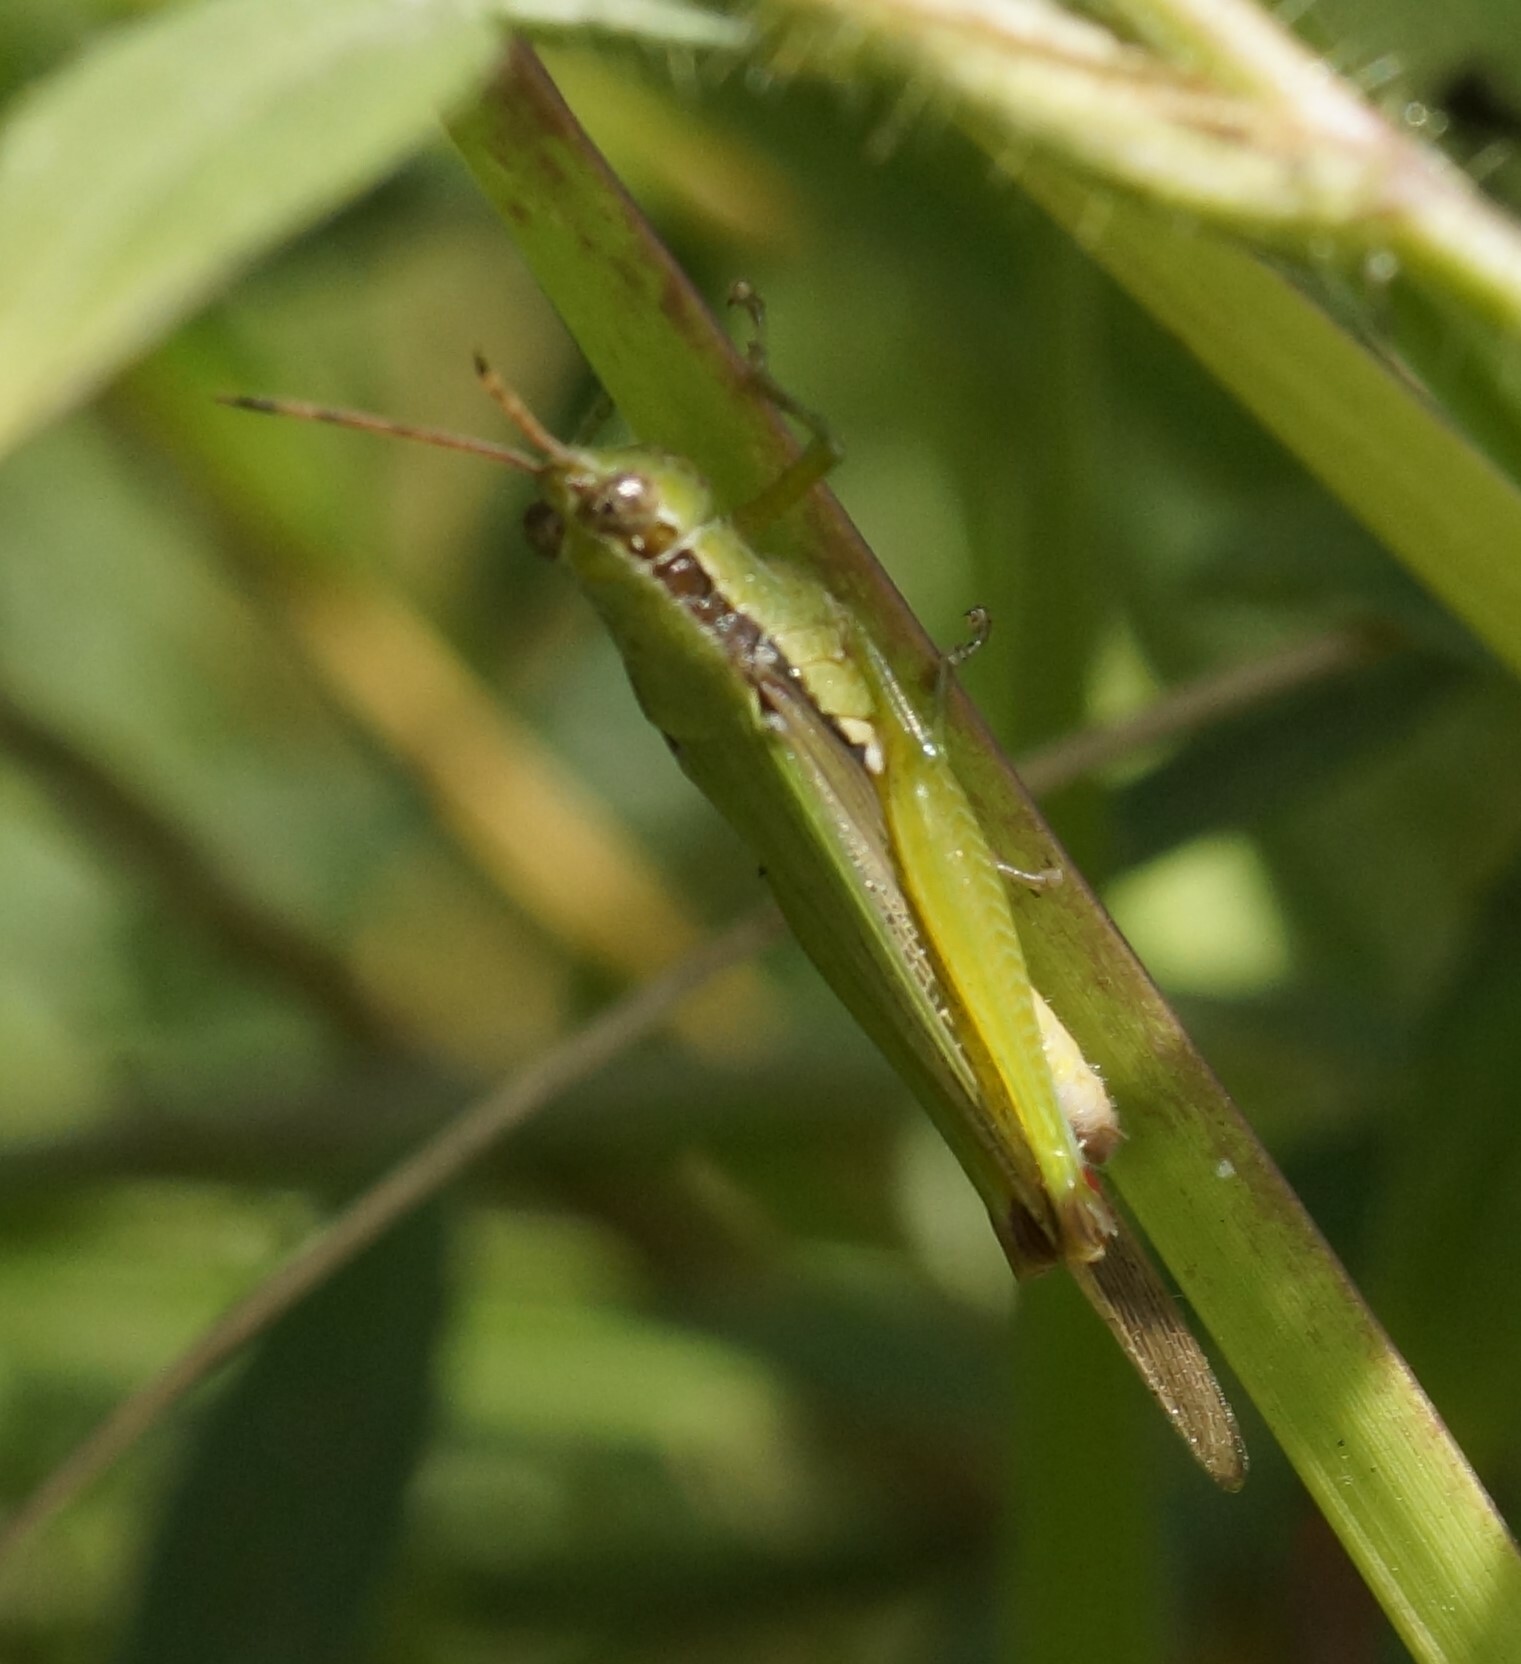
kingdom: Animalia
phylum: Arthropoda
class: Insecta
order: Orthoptera
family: Acrididae
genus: Gesonula
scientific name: Gesonula mundata
